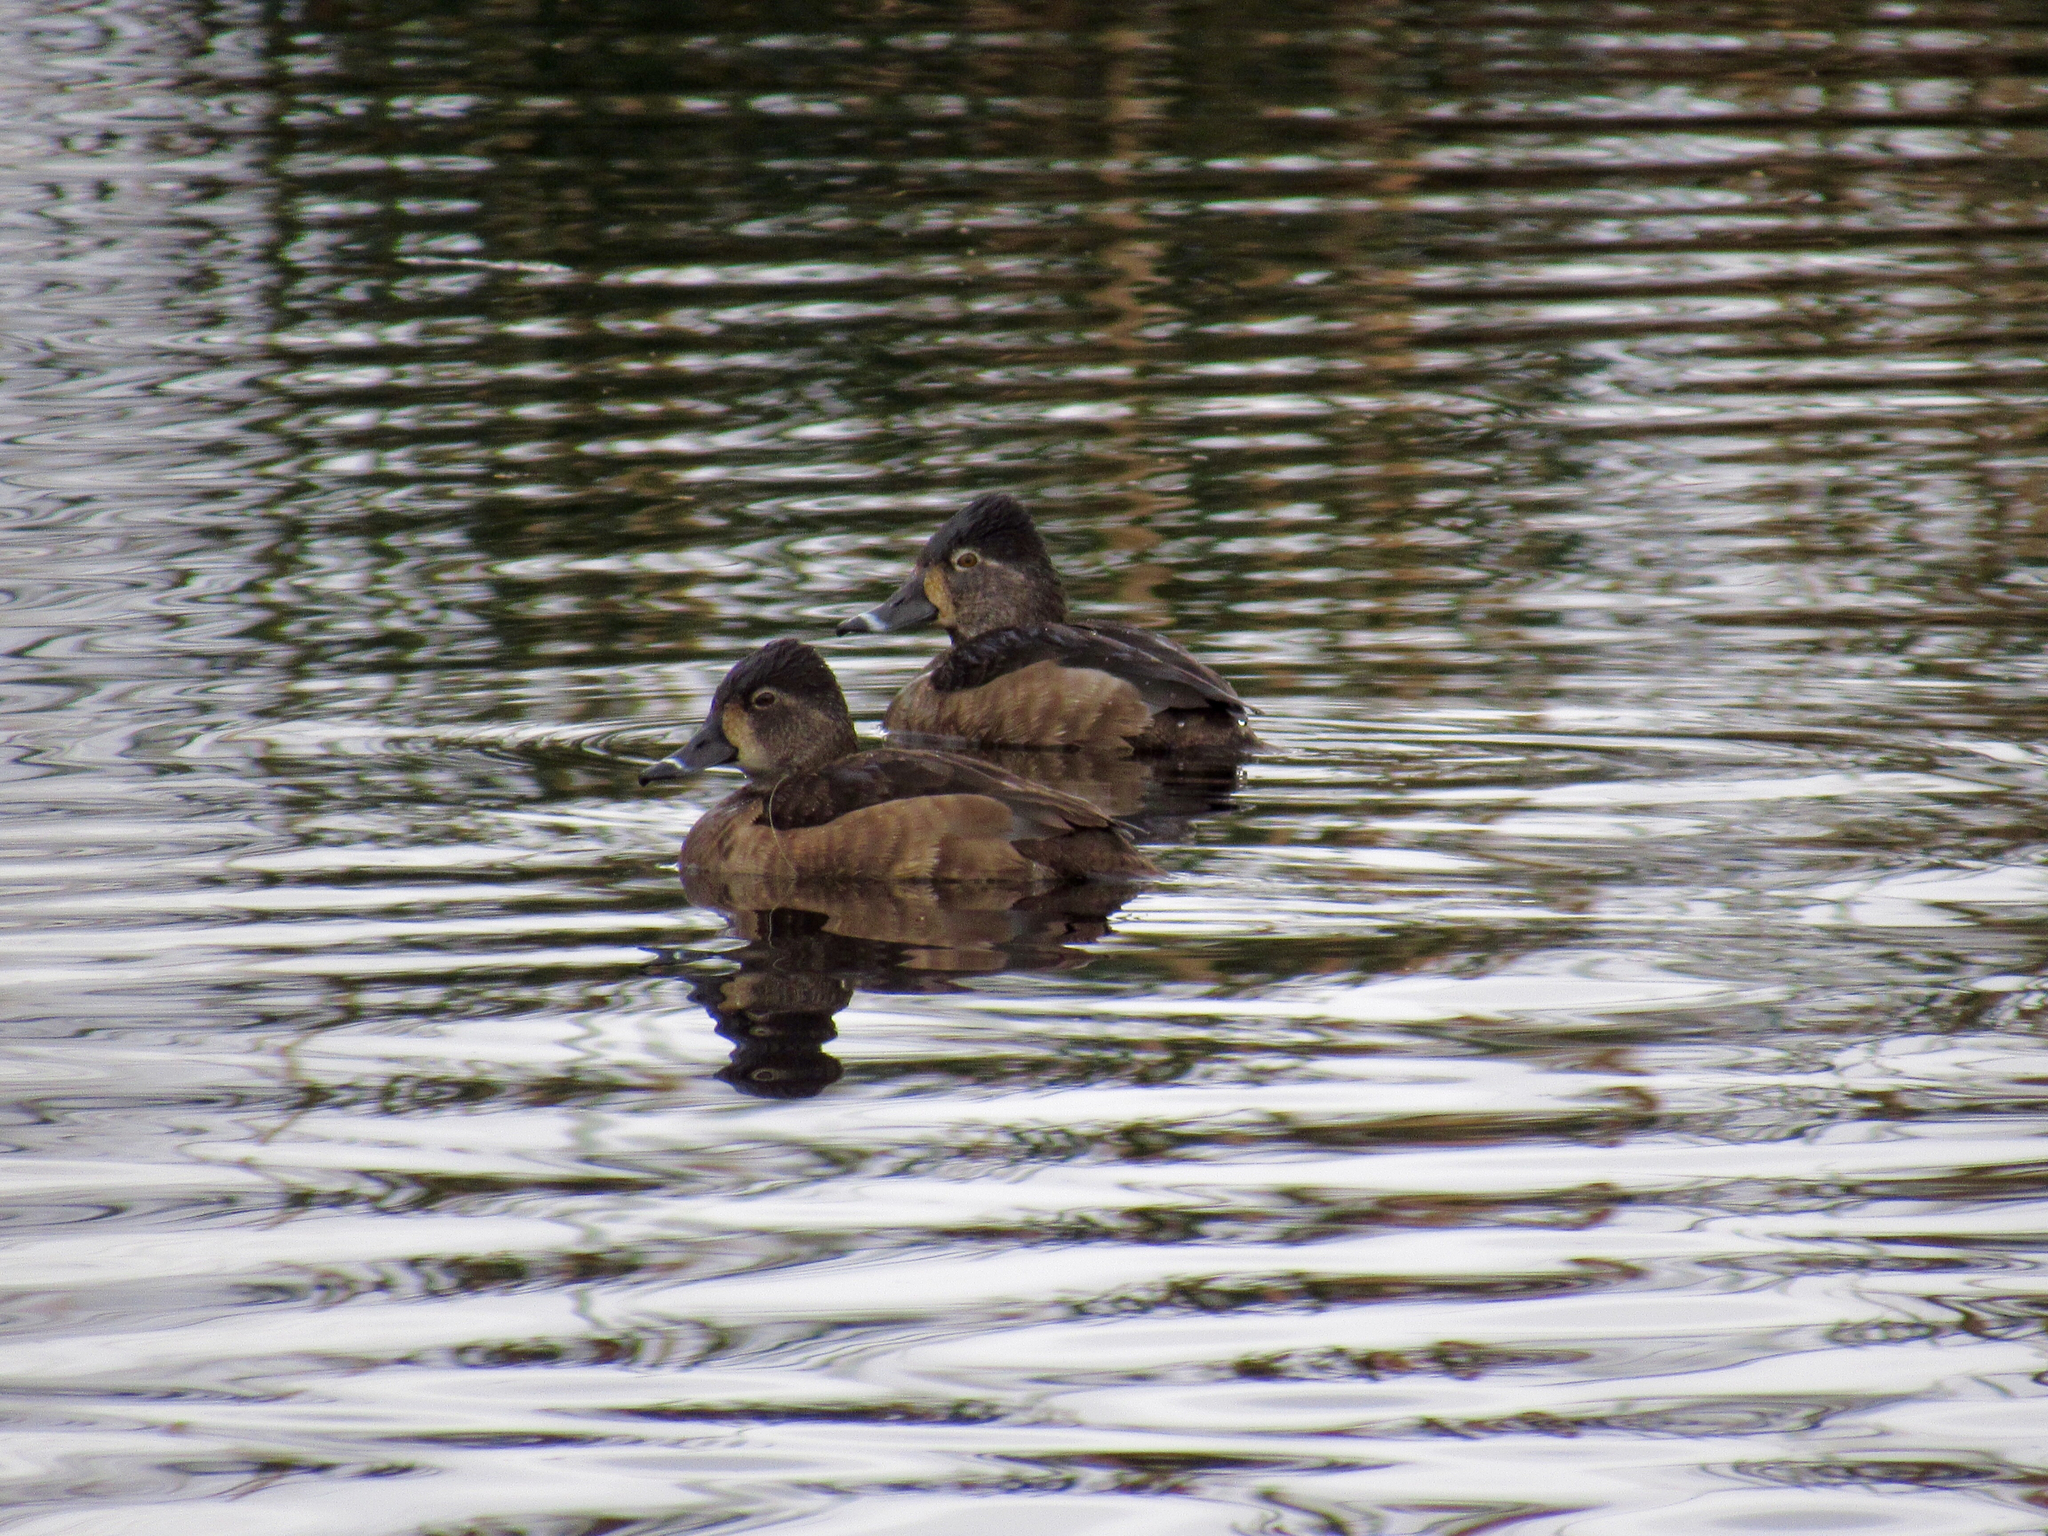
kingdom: Animalia
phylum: Chordata
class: Aves
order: Anseriformes
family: Anatidae
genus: Aythya
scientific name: Aythya collaris
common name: Ring-necked duck
